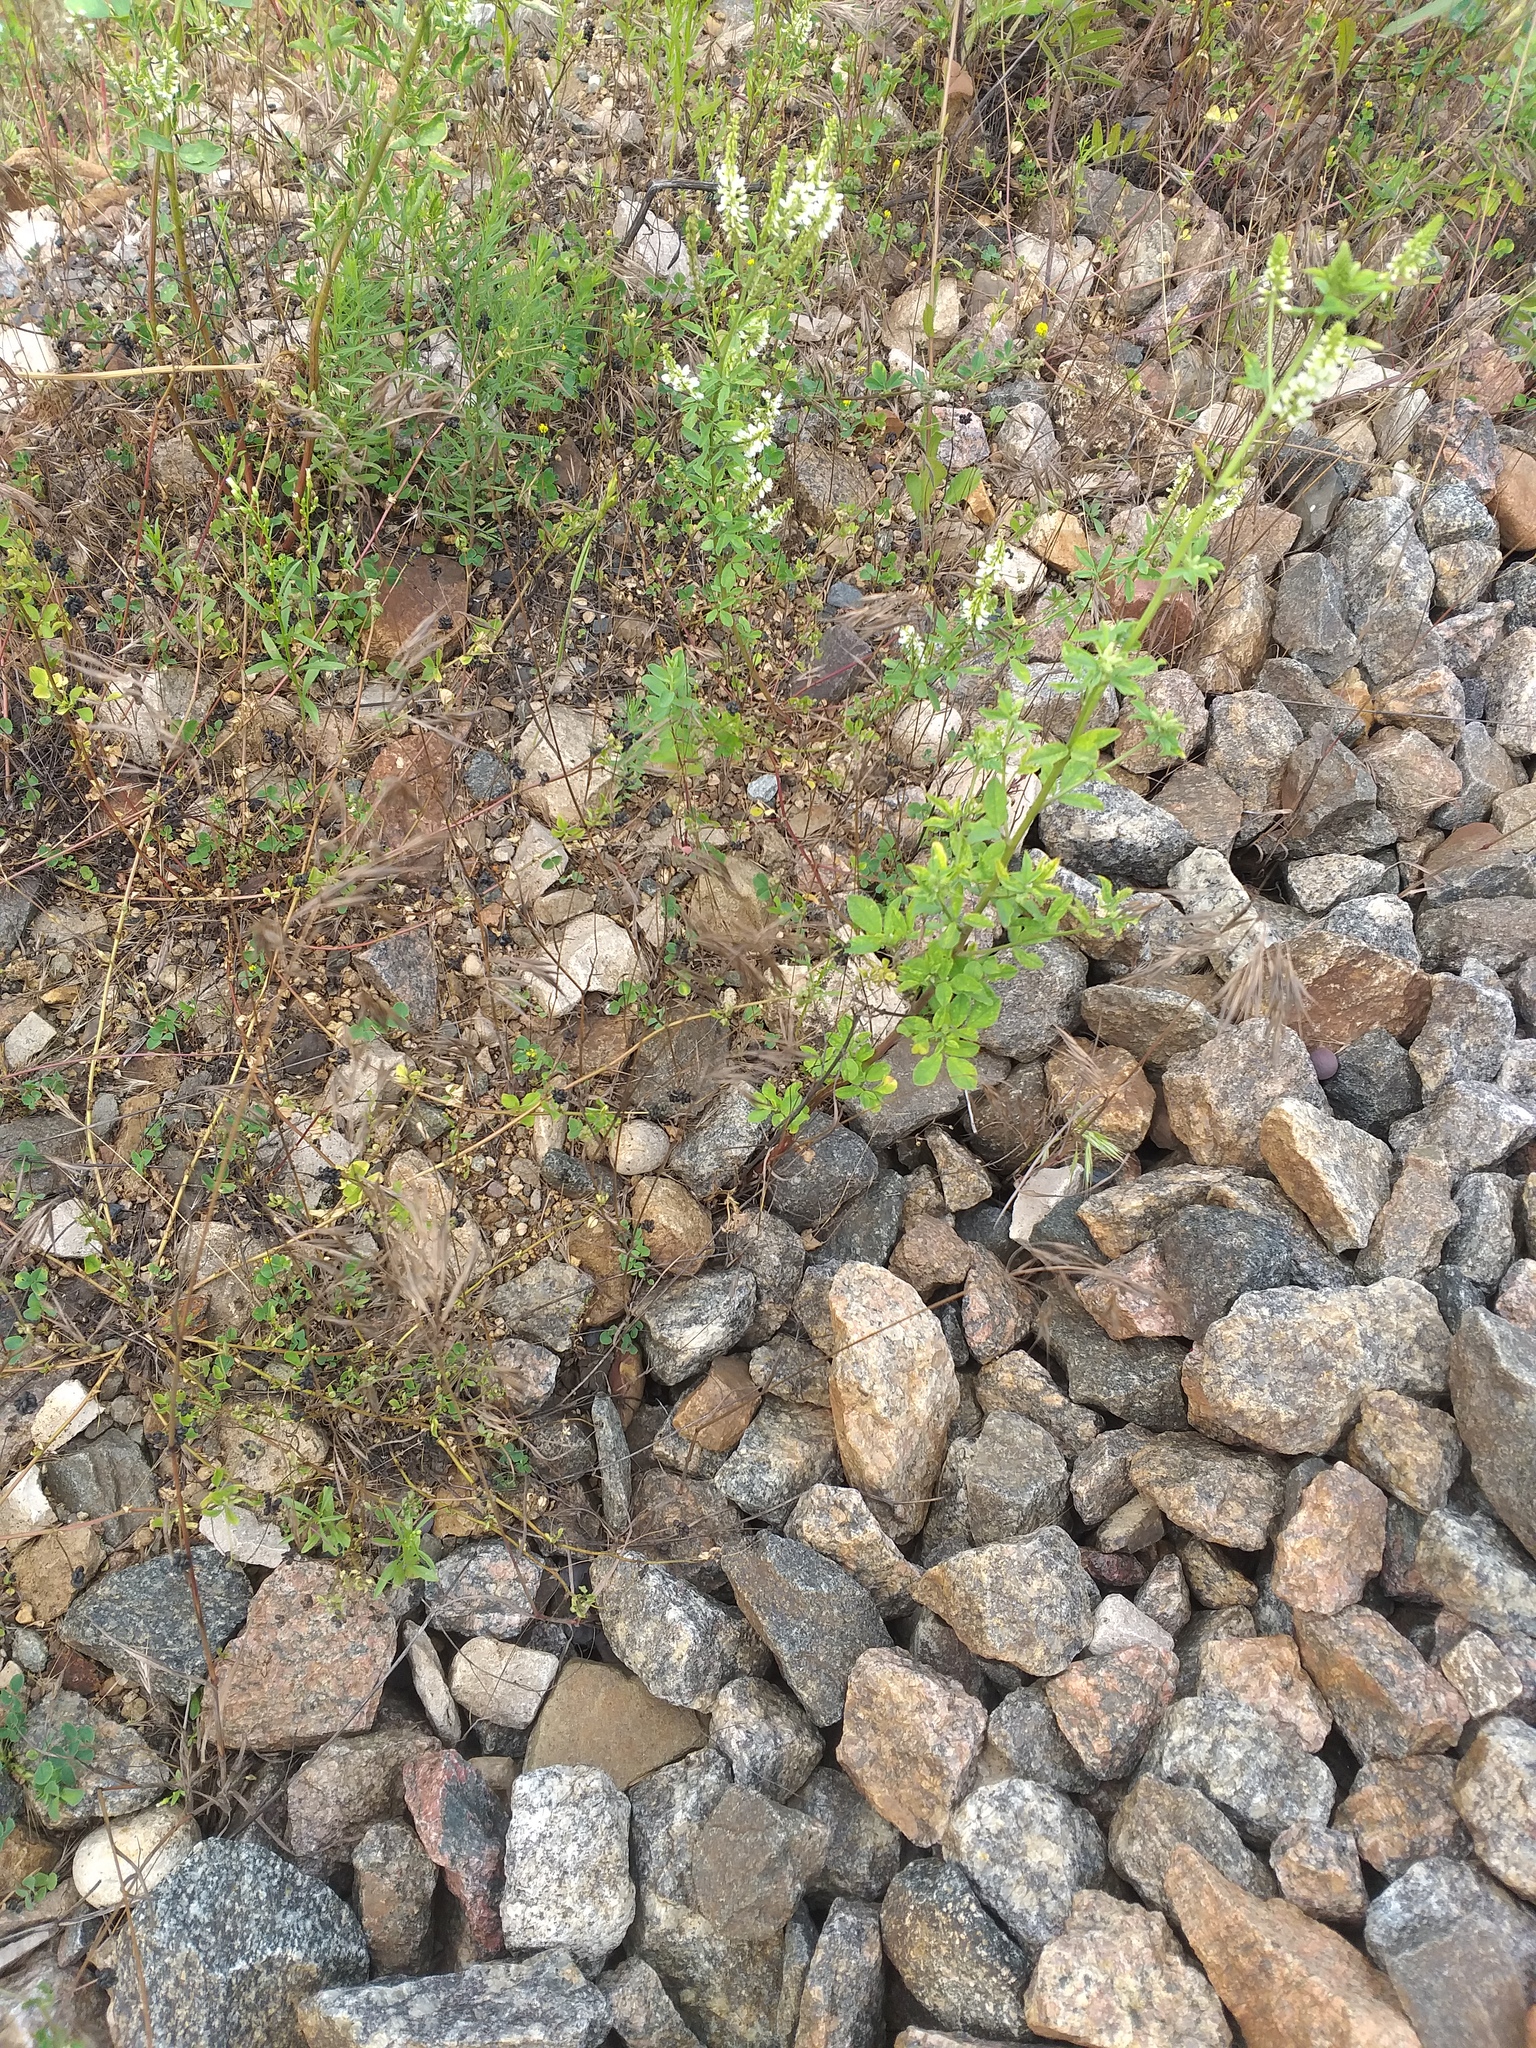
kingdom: Plantae
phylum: Tracheophyta
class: Liliopsida
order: Poales
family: Poaceae
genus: Bromus
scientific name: Bromus tectorum
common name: Cheatgrass
